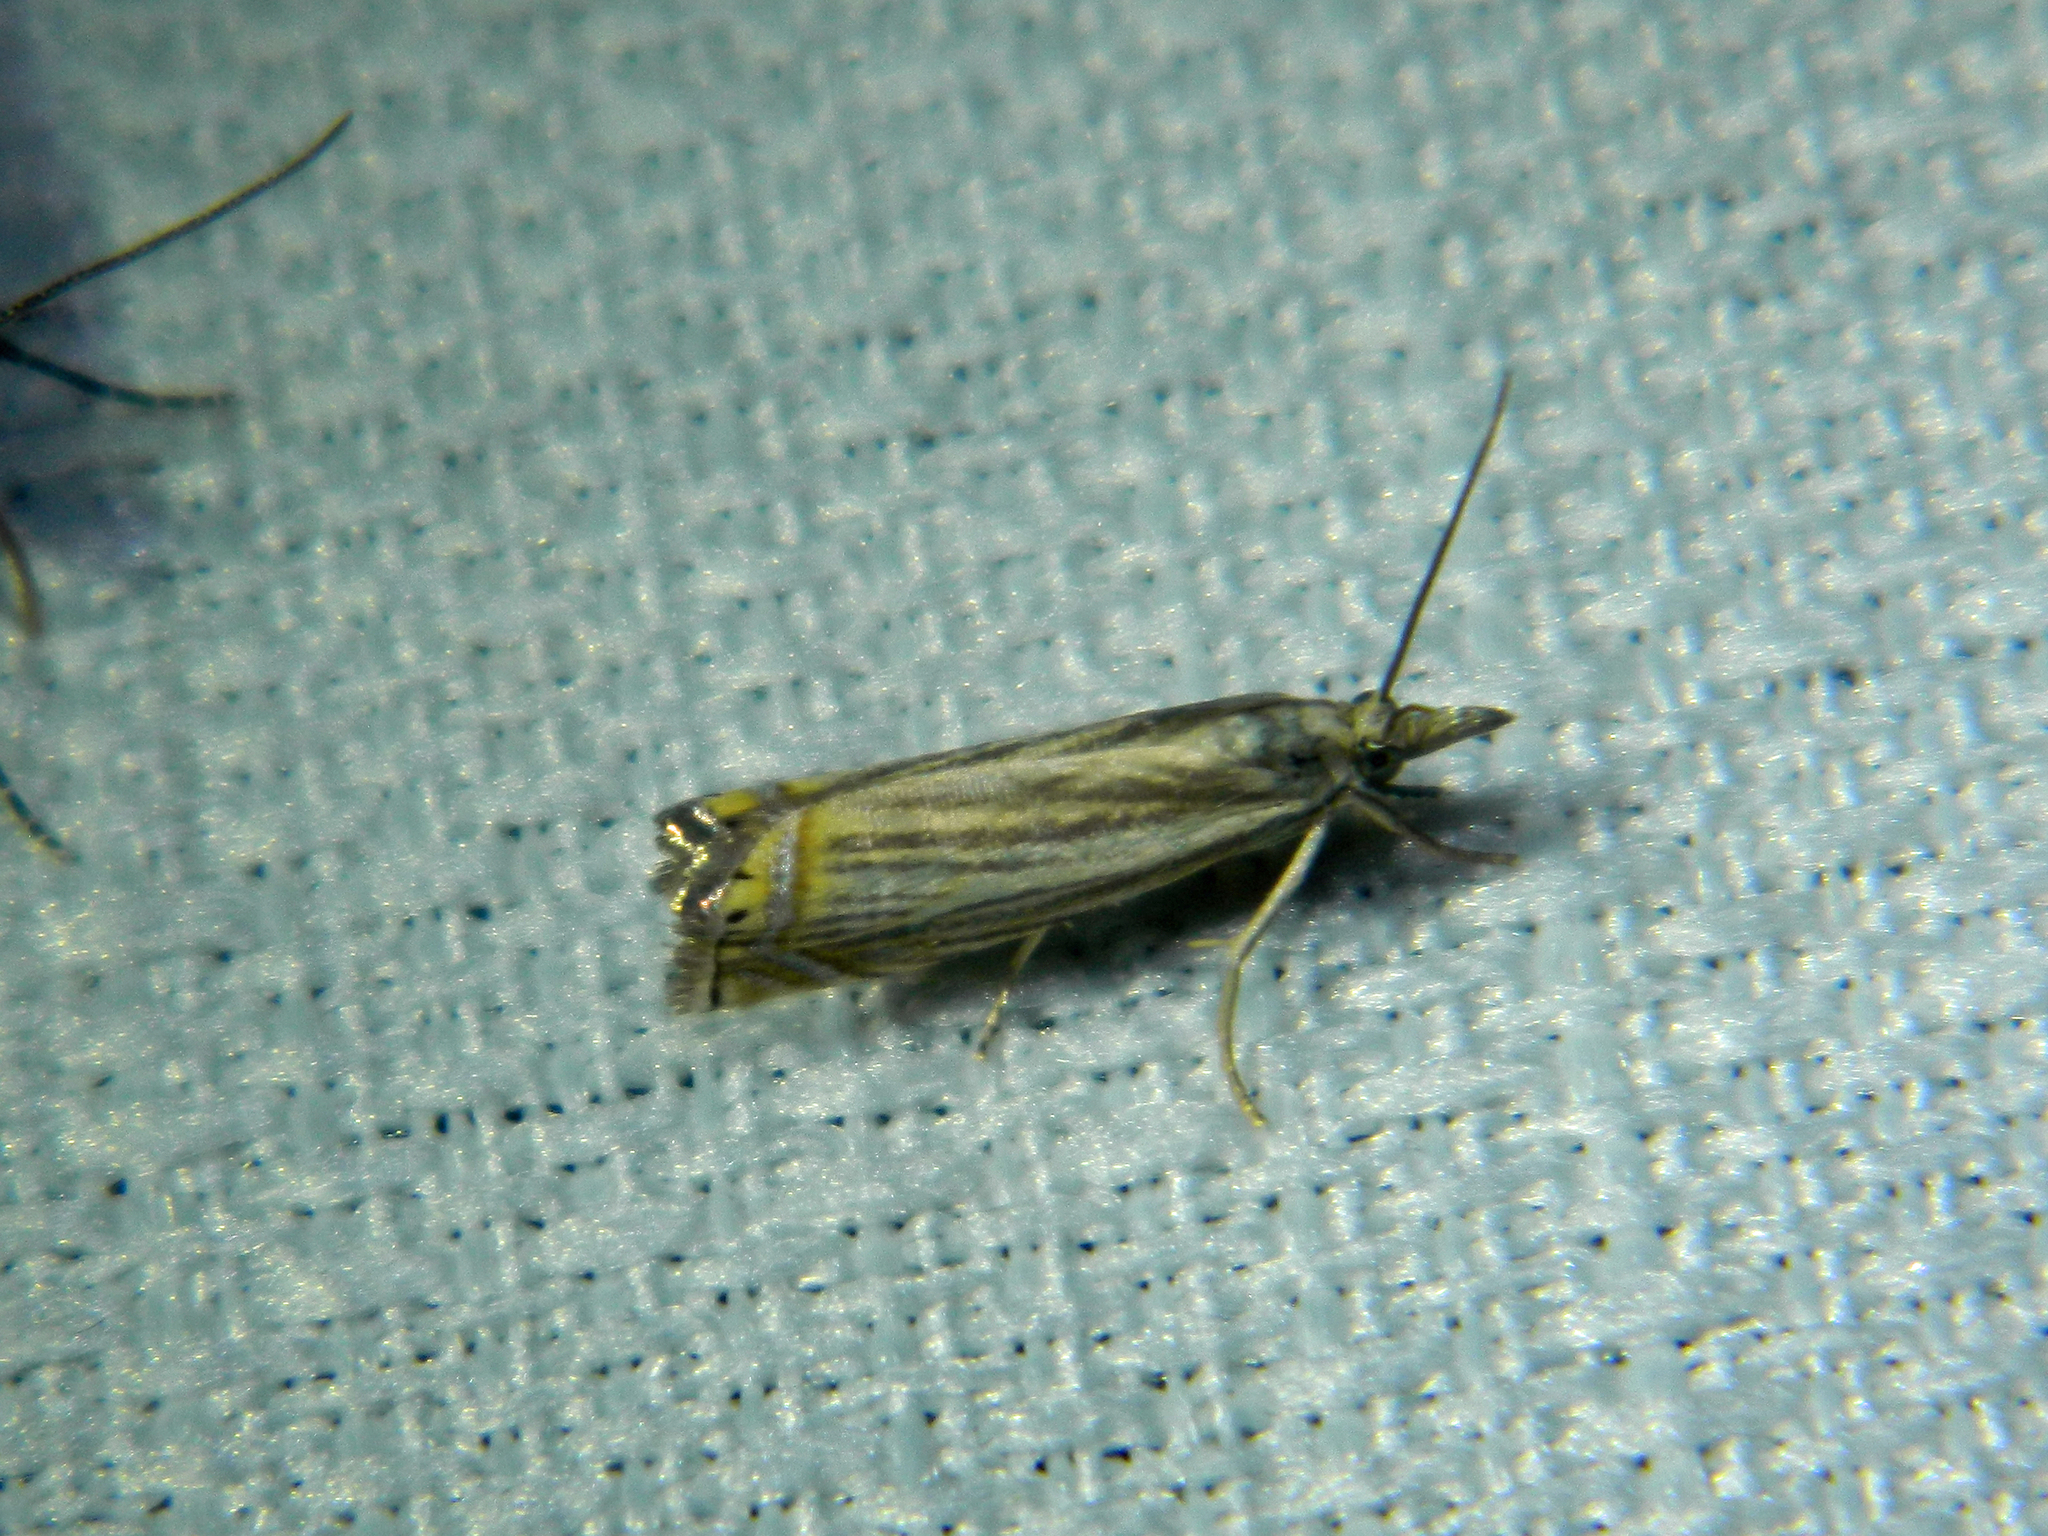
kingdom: Animalia
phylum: Arthropoda
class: Insecta
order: Lepidoptera
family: Crambidae
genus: Chrysoteuchia
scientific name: Chrysoteuchia topiarius
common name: Topiary grass-veneer
